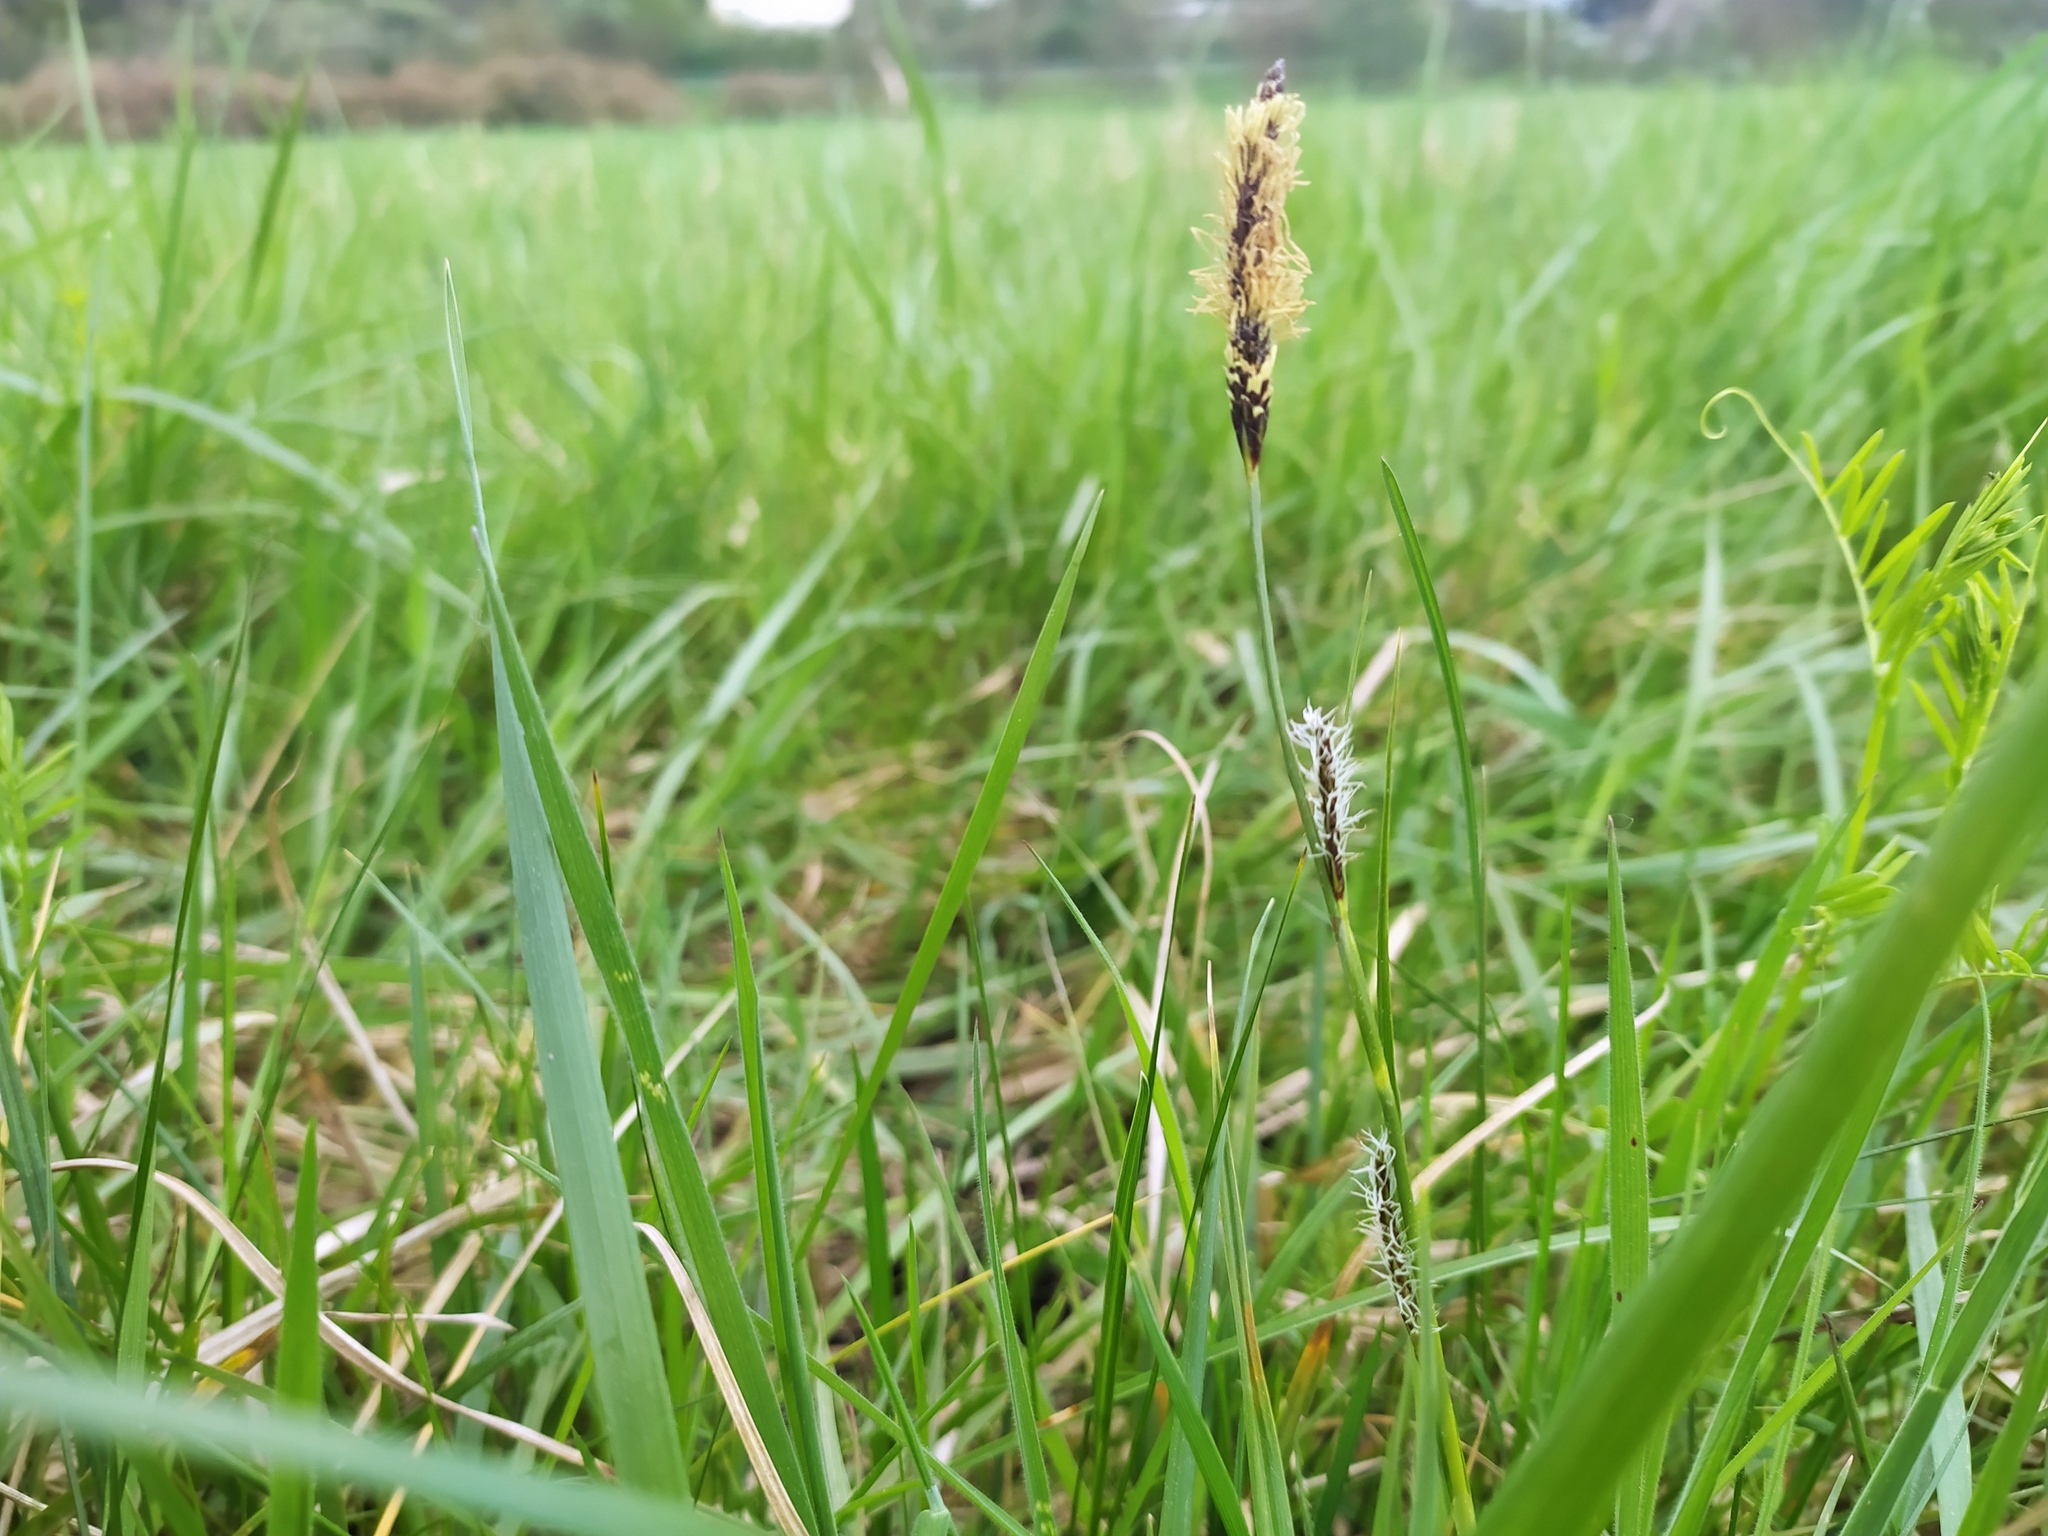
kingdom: Plantae
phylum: Tracheophyta
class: Liliopsida
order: Poales
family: Cyperaceae
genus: Carex
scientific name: Carex distans
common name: Distant sedge
